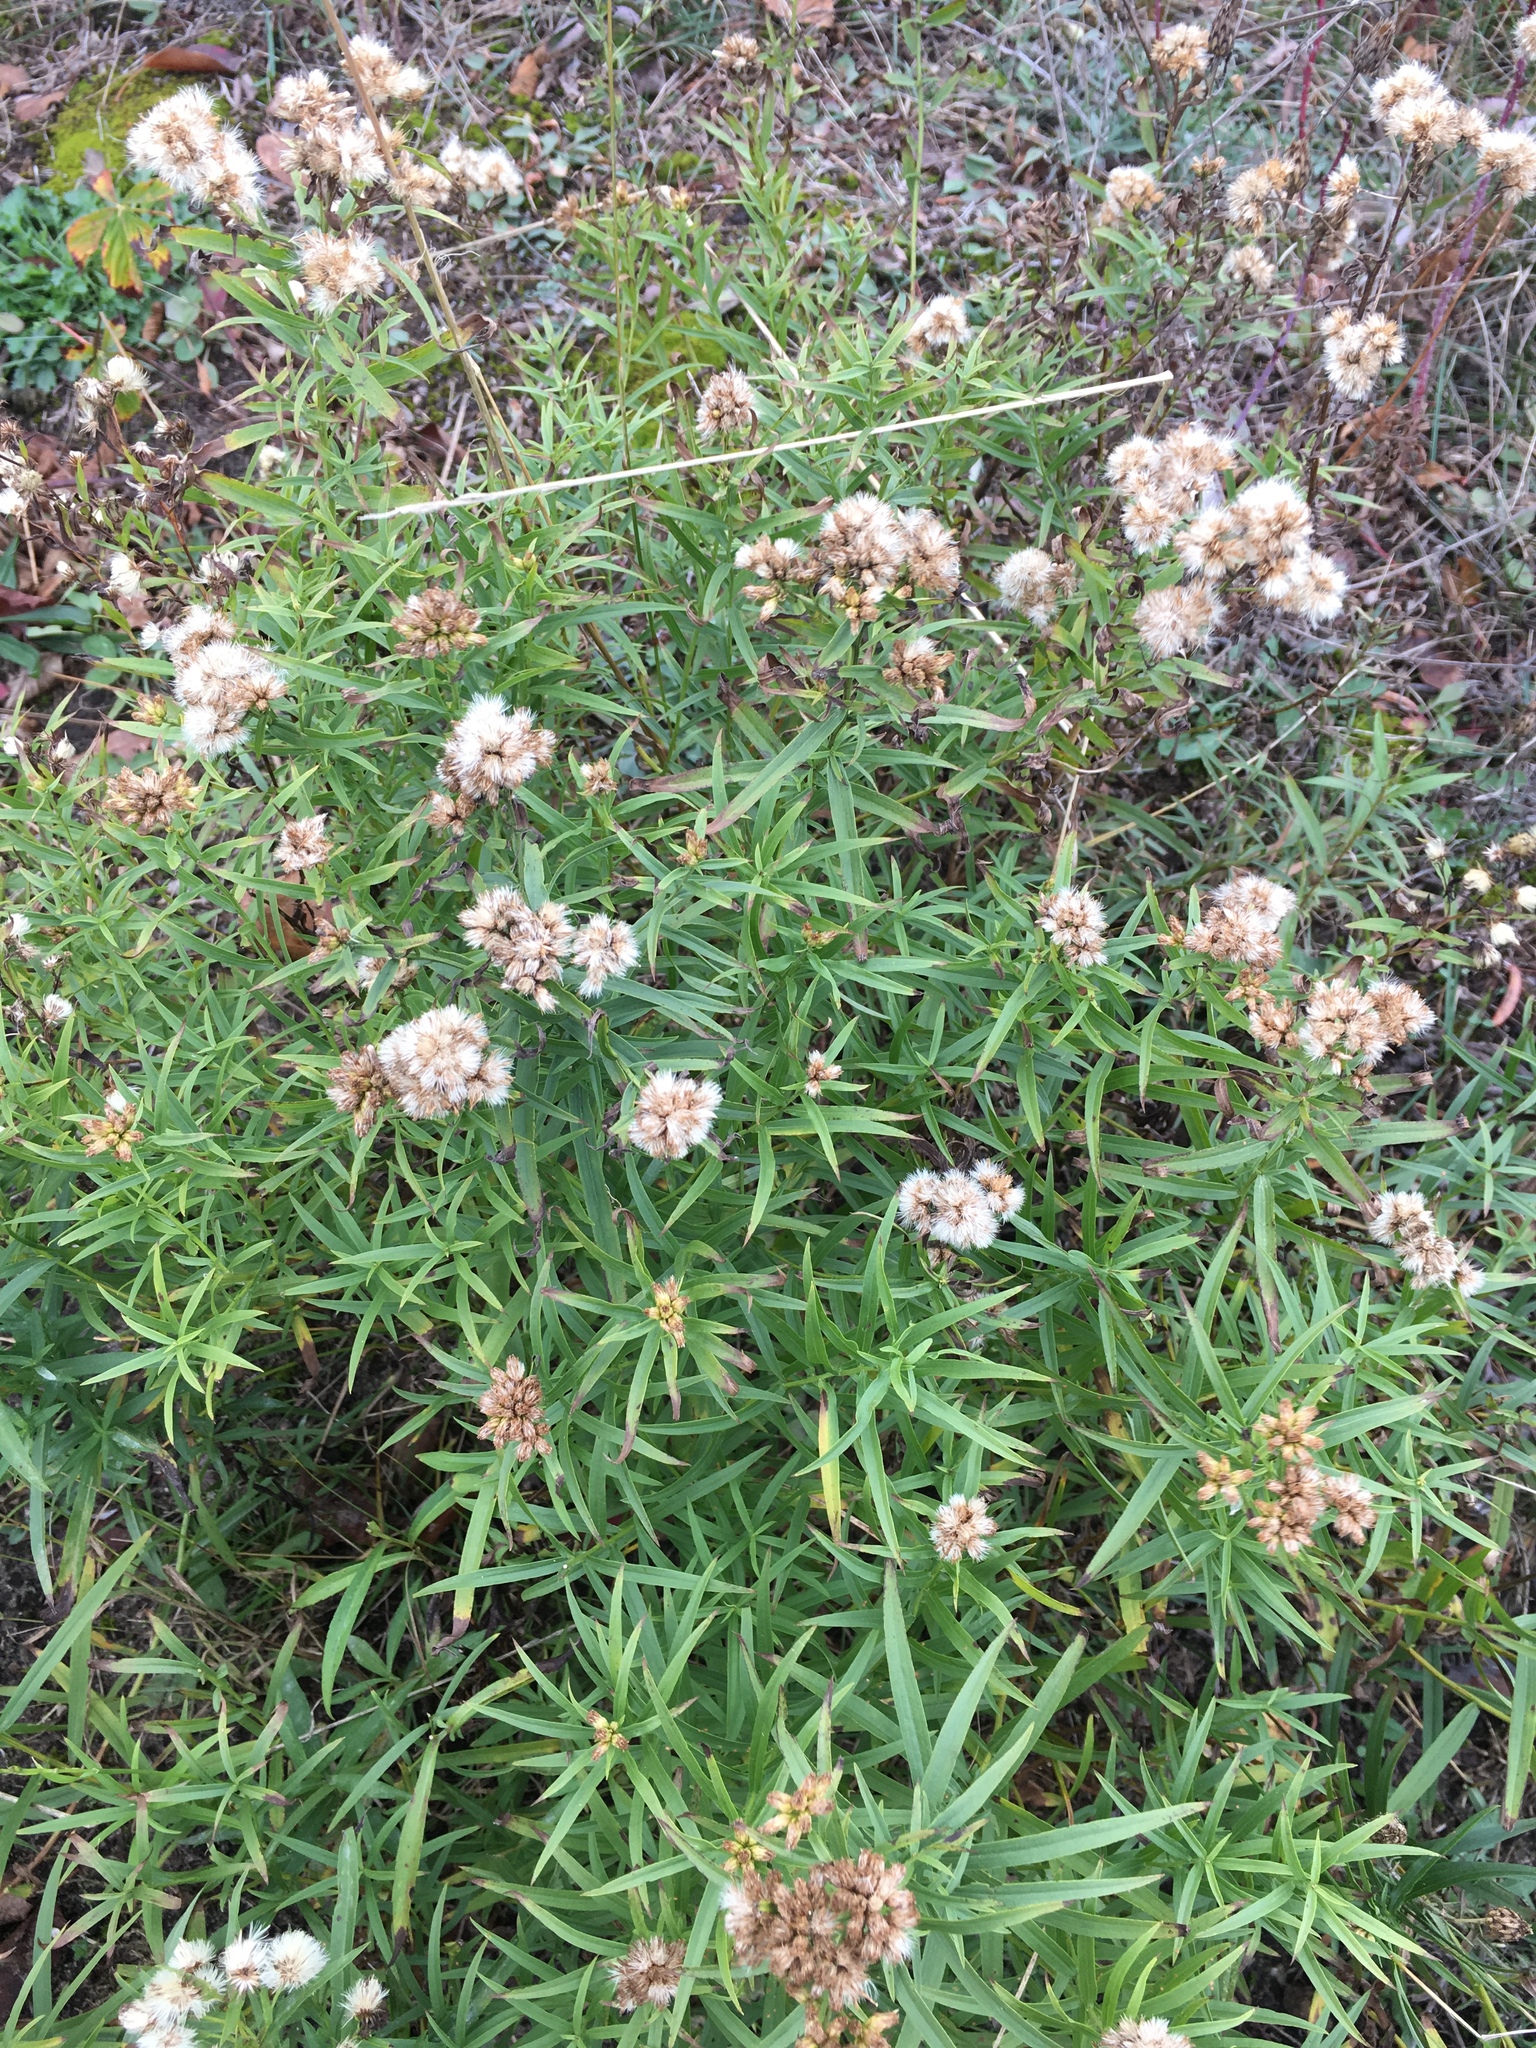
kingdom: Plantae
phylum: Tracheophyta
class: Magnoliopsida
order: Asterales
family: Asteraceae
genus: Euthamia
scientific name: Euthamia graminifolia
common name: Common goldentop
